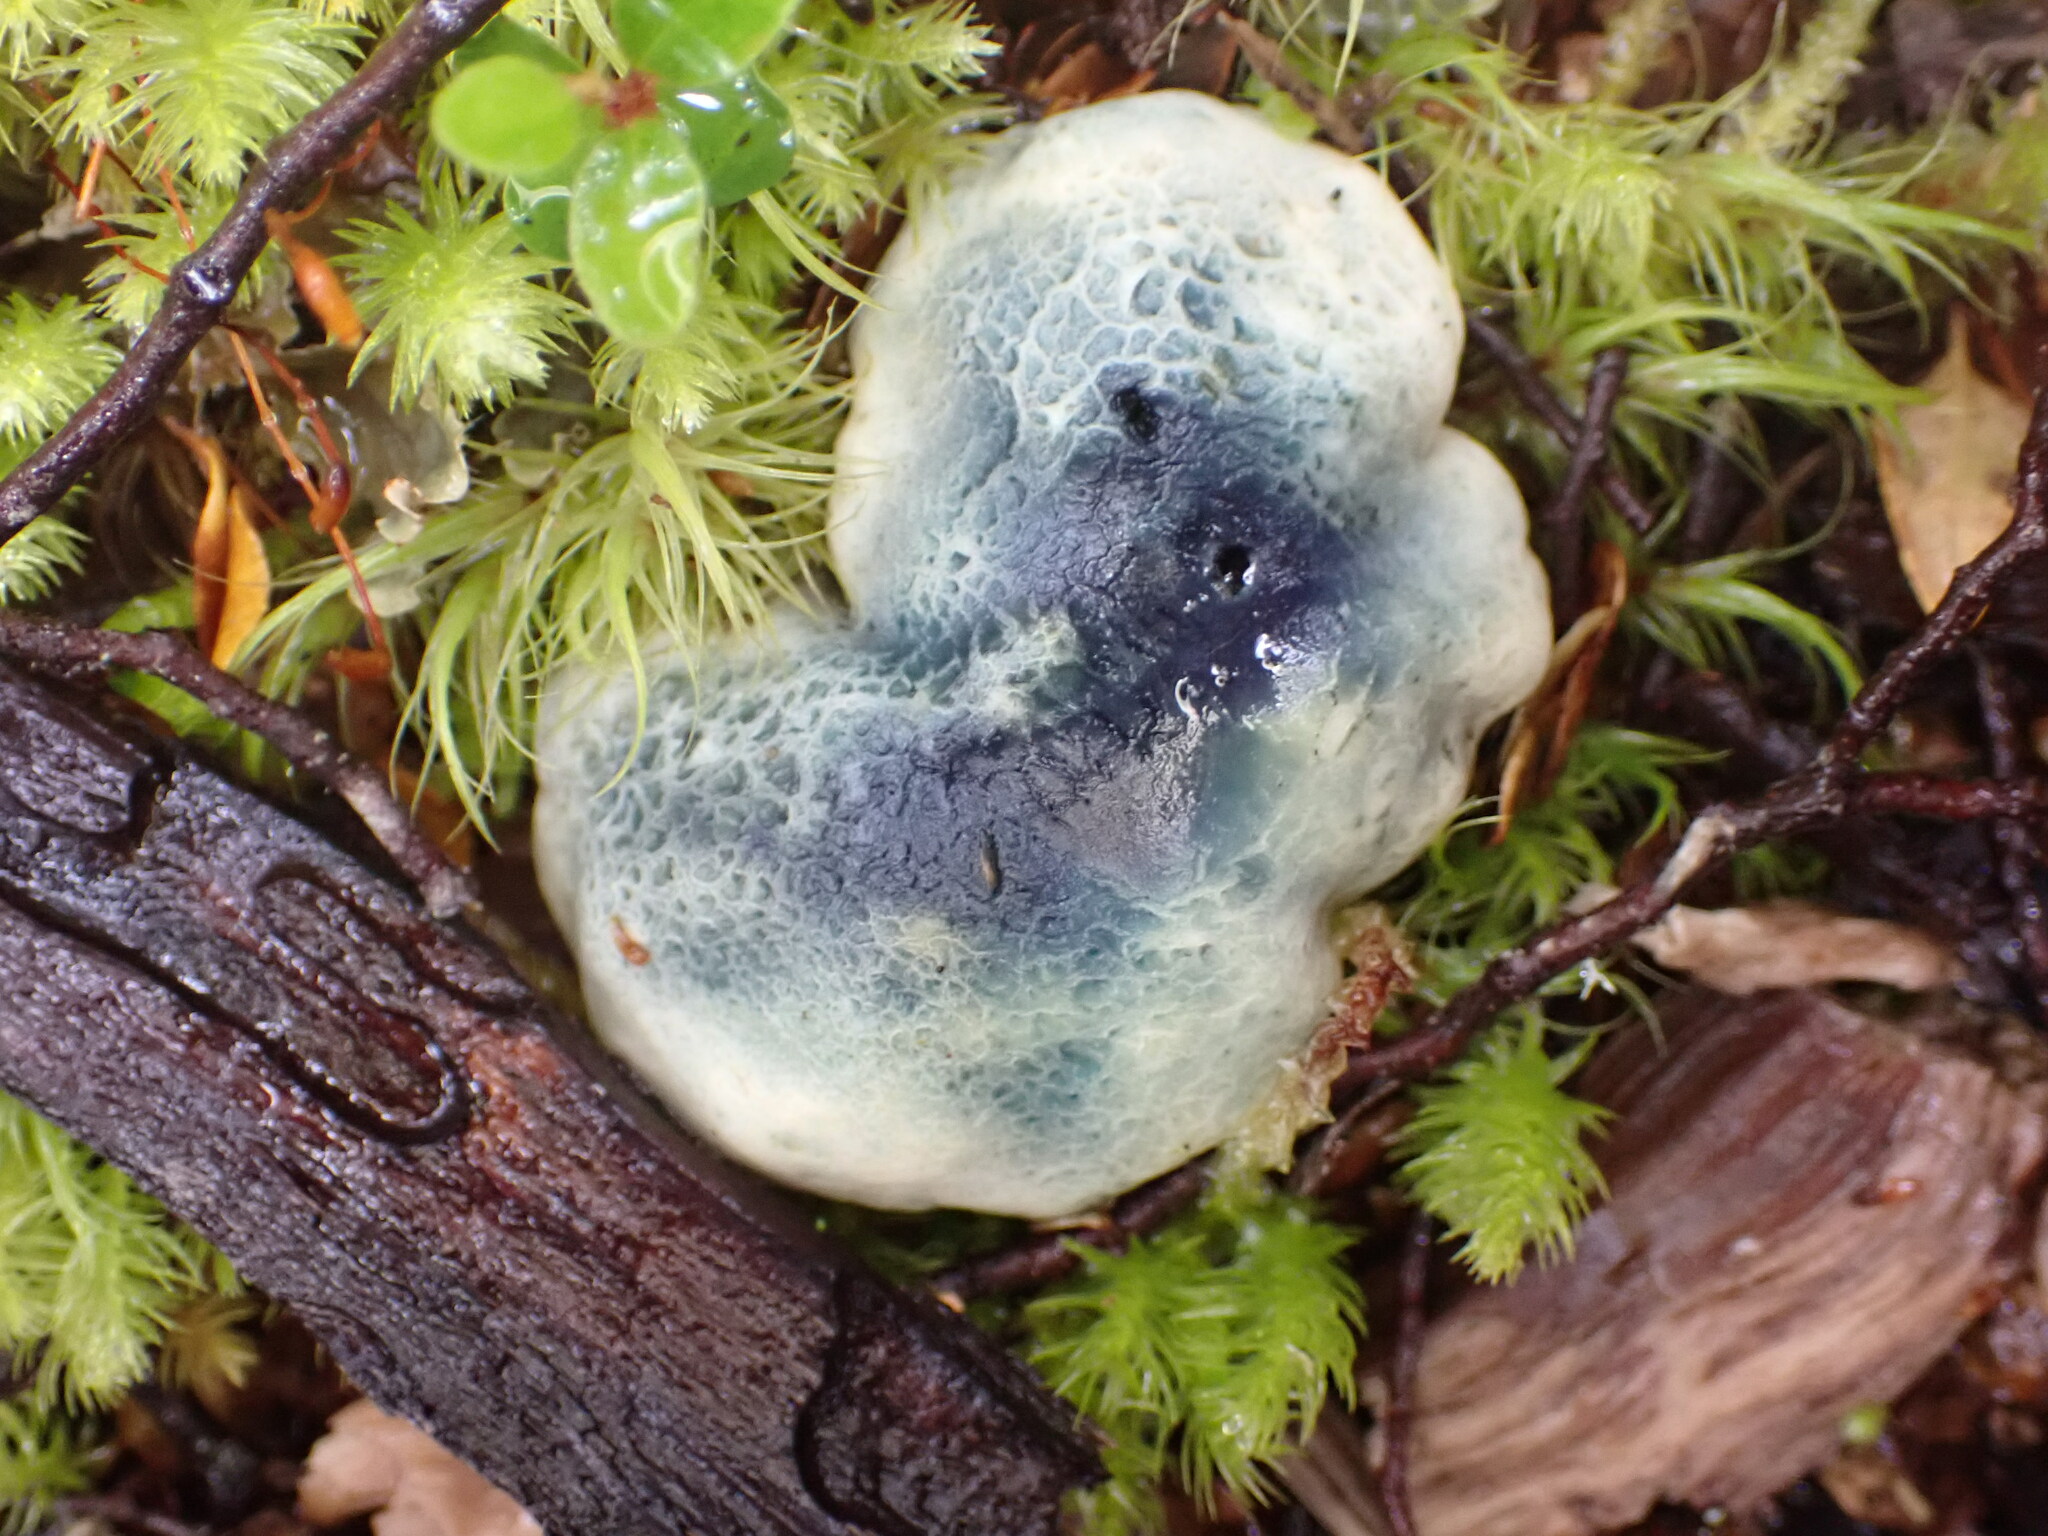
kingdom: Fungi
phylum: Basidiomycota
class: Agaricomycetes
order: Boletales
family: Boletaceae
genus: Leccinum
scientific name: Leccinum pachyderme
